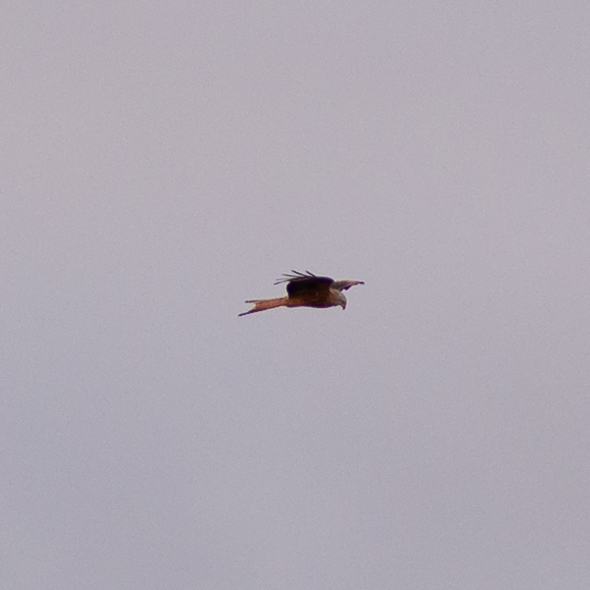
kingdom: Animalia
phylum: Chordata
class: Aves
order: Accipitriformes
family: Accipitridae
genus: Milvus
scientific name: Milvus milvus
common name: Red kite
